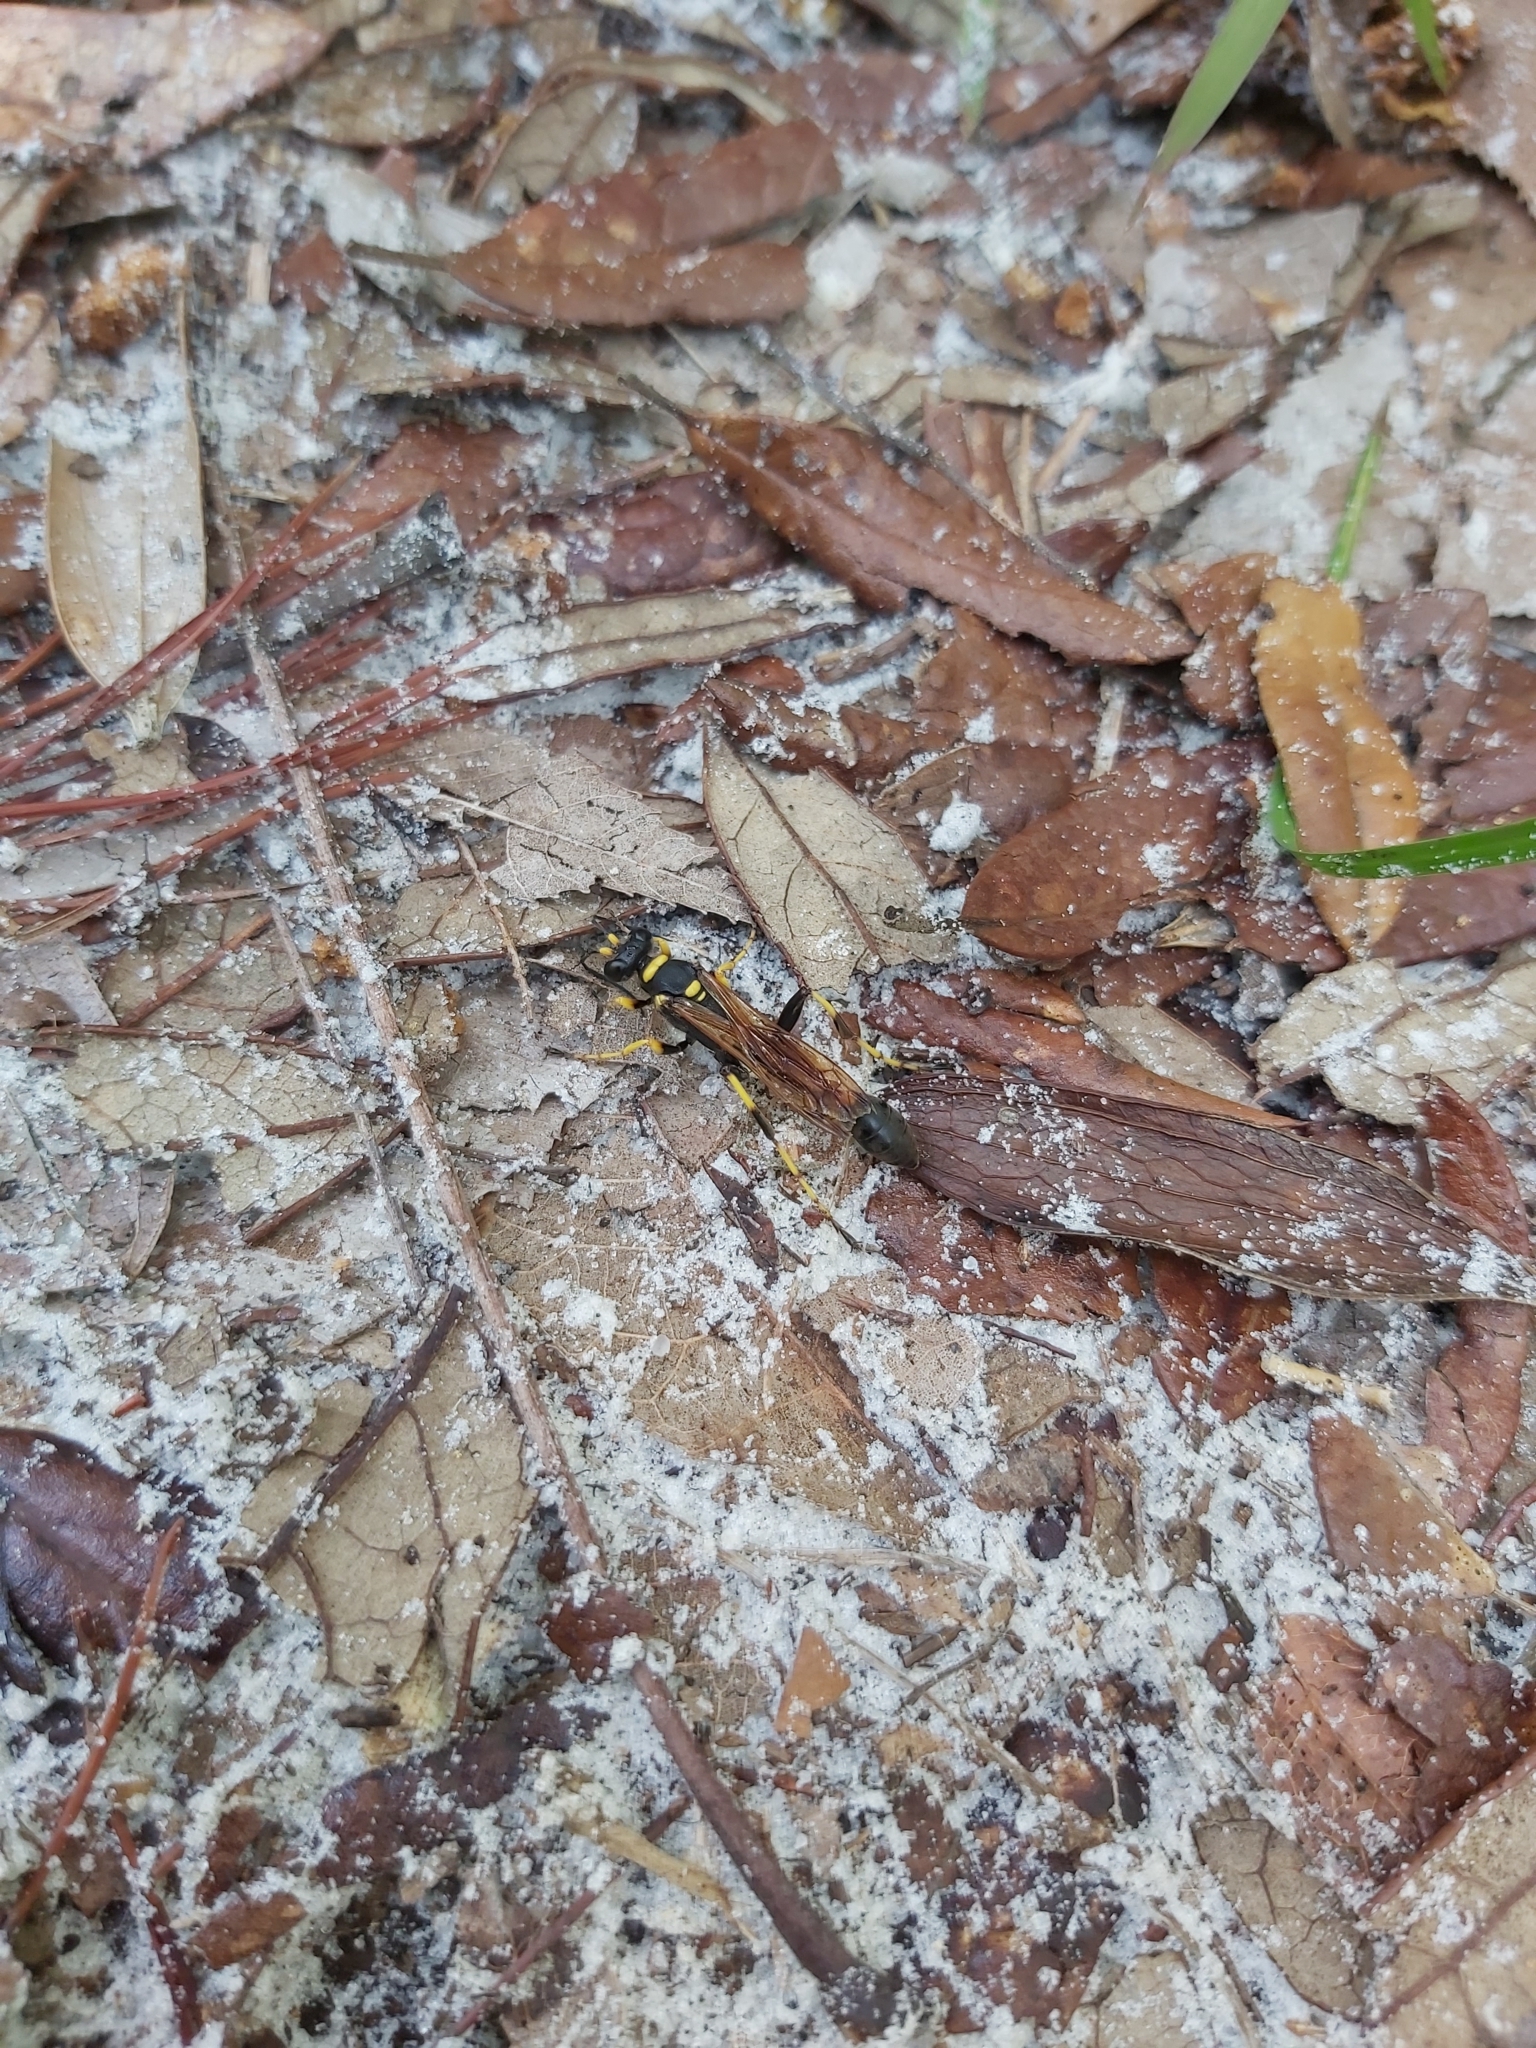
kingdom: Animalia
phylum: Arthropoda
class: Insecta
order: Hymenoptera
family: Sphecidae
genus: Sceliphron
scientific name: Sceliphron caementarium
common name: Mud dauber
